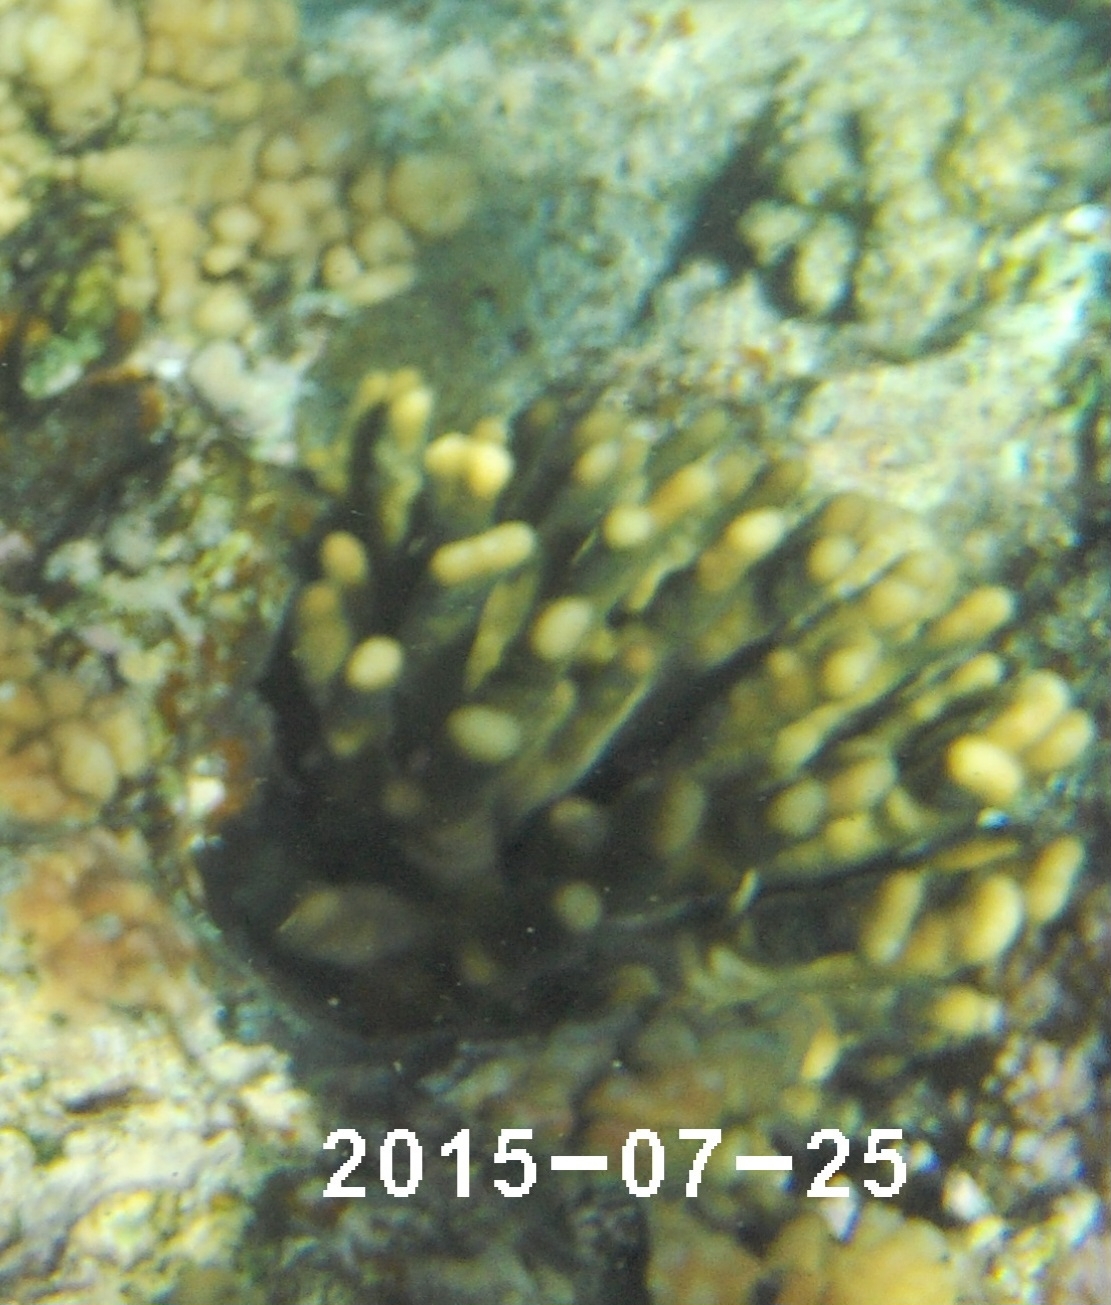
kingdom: Animalia
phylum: Cnidaria
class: Anthozoa
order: Scleractinia
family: Pocilloporidae
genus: Stylophora
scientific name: Stylophora pistillata
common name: Hood coral
